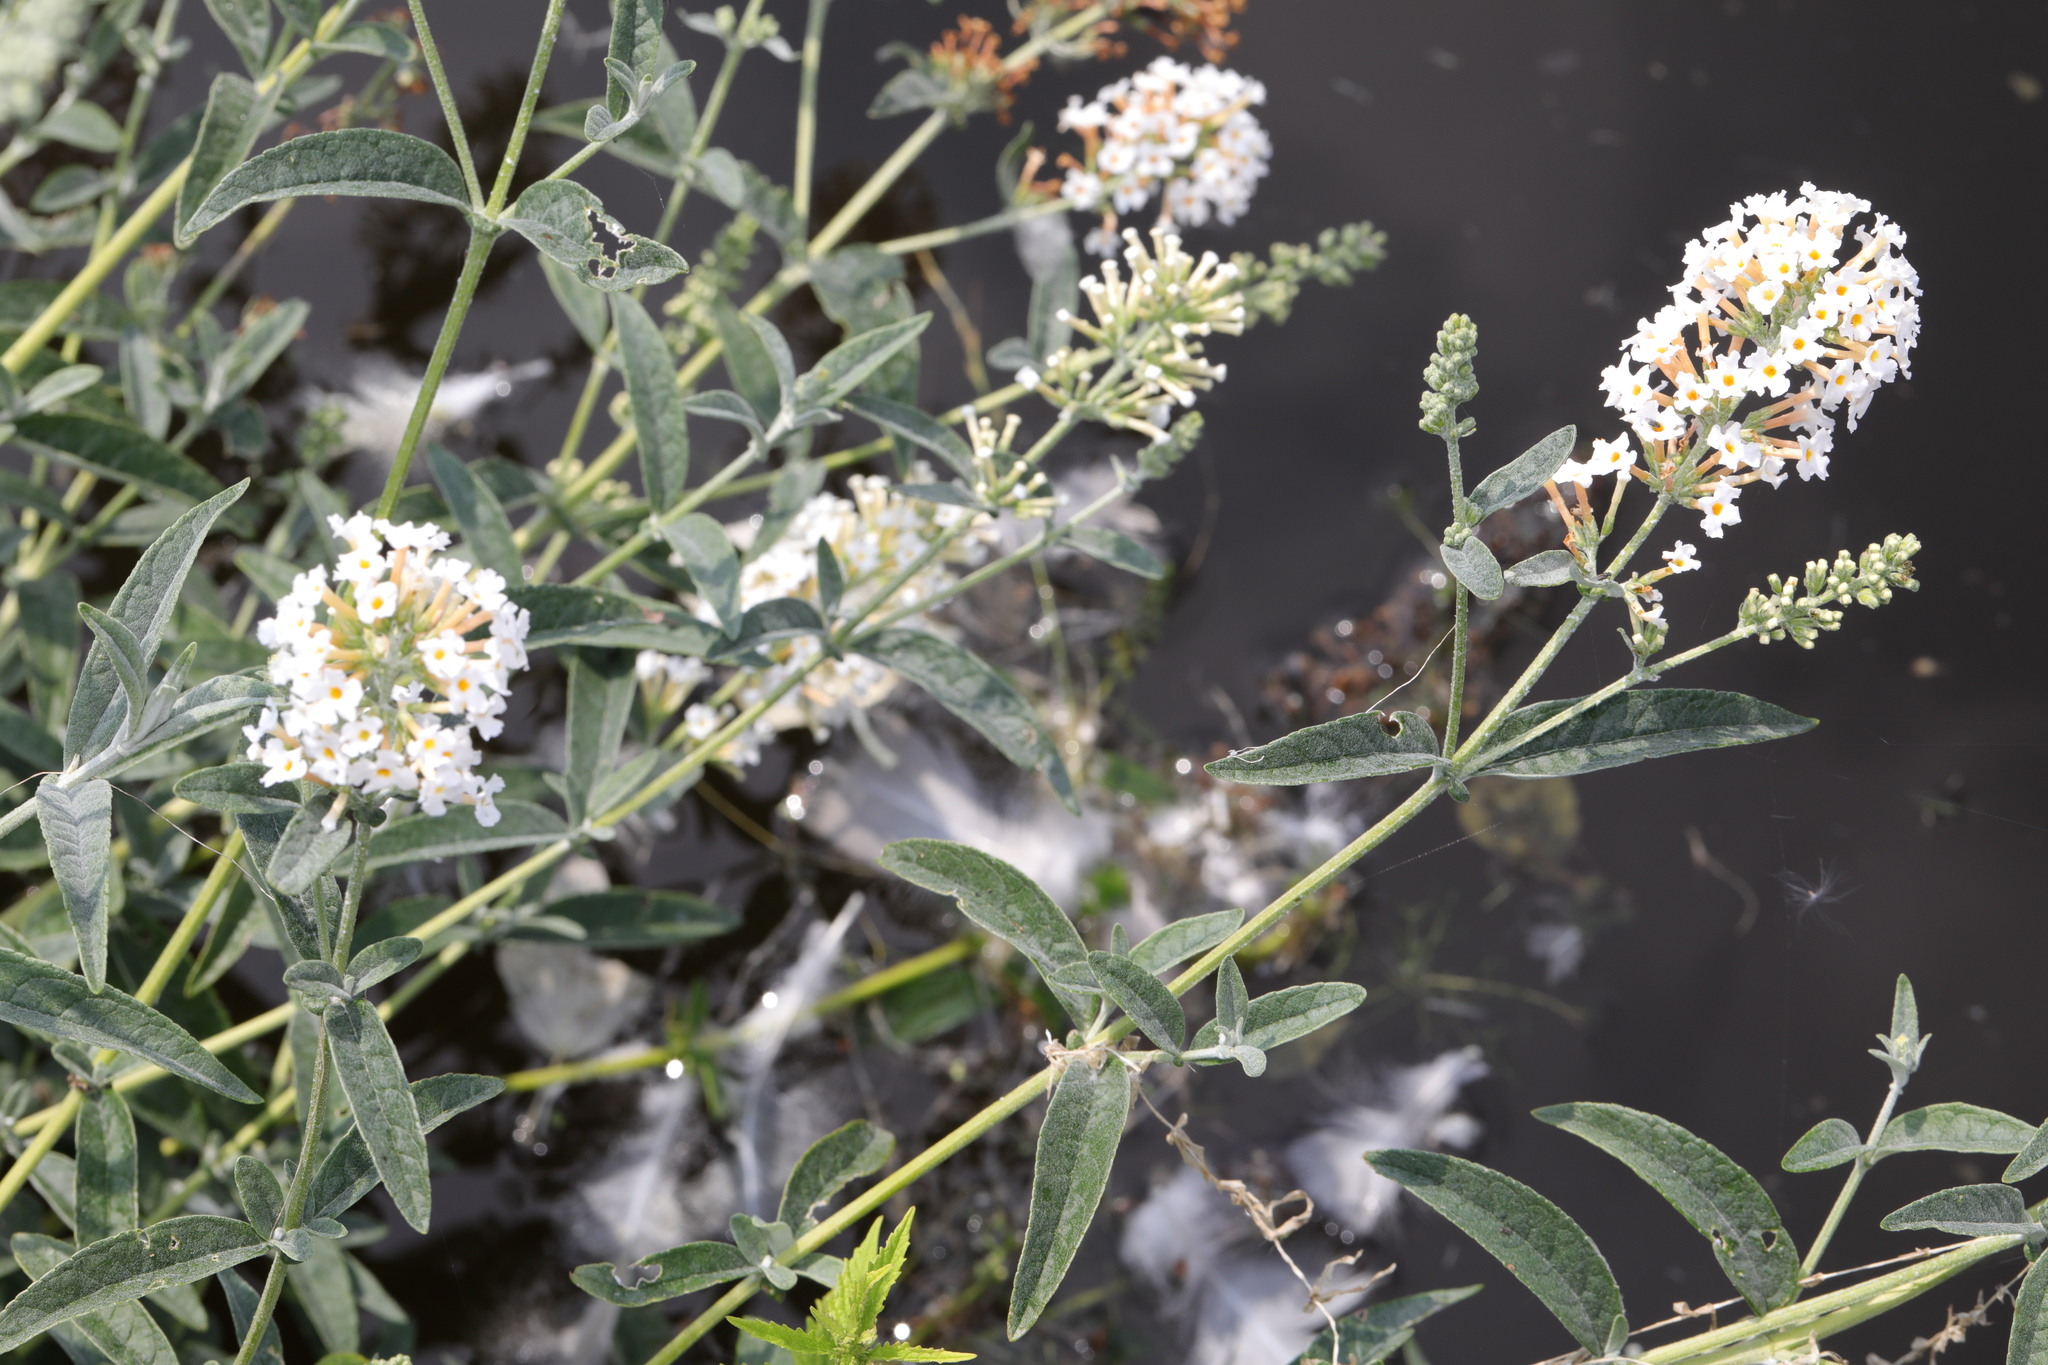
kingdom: Plantae
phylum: Tracheophyta
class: Magnoliopsida
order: Lamiales
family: Scrophulariaceae
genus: Buddleja
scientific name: Buddleja davidii
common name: Butterfly-bush
